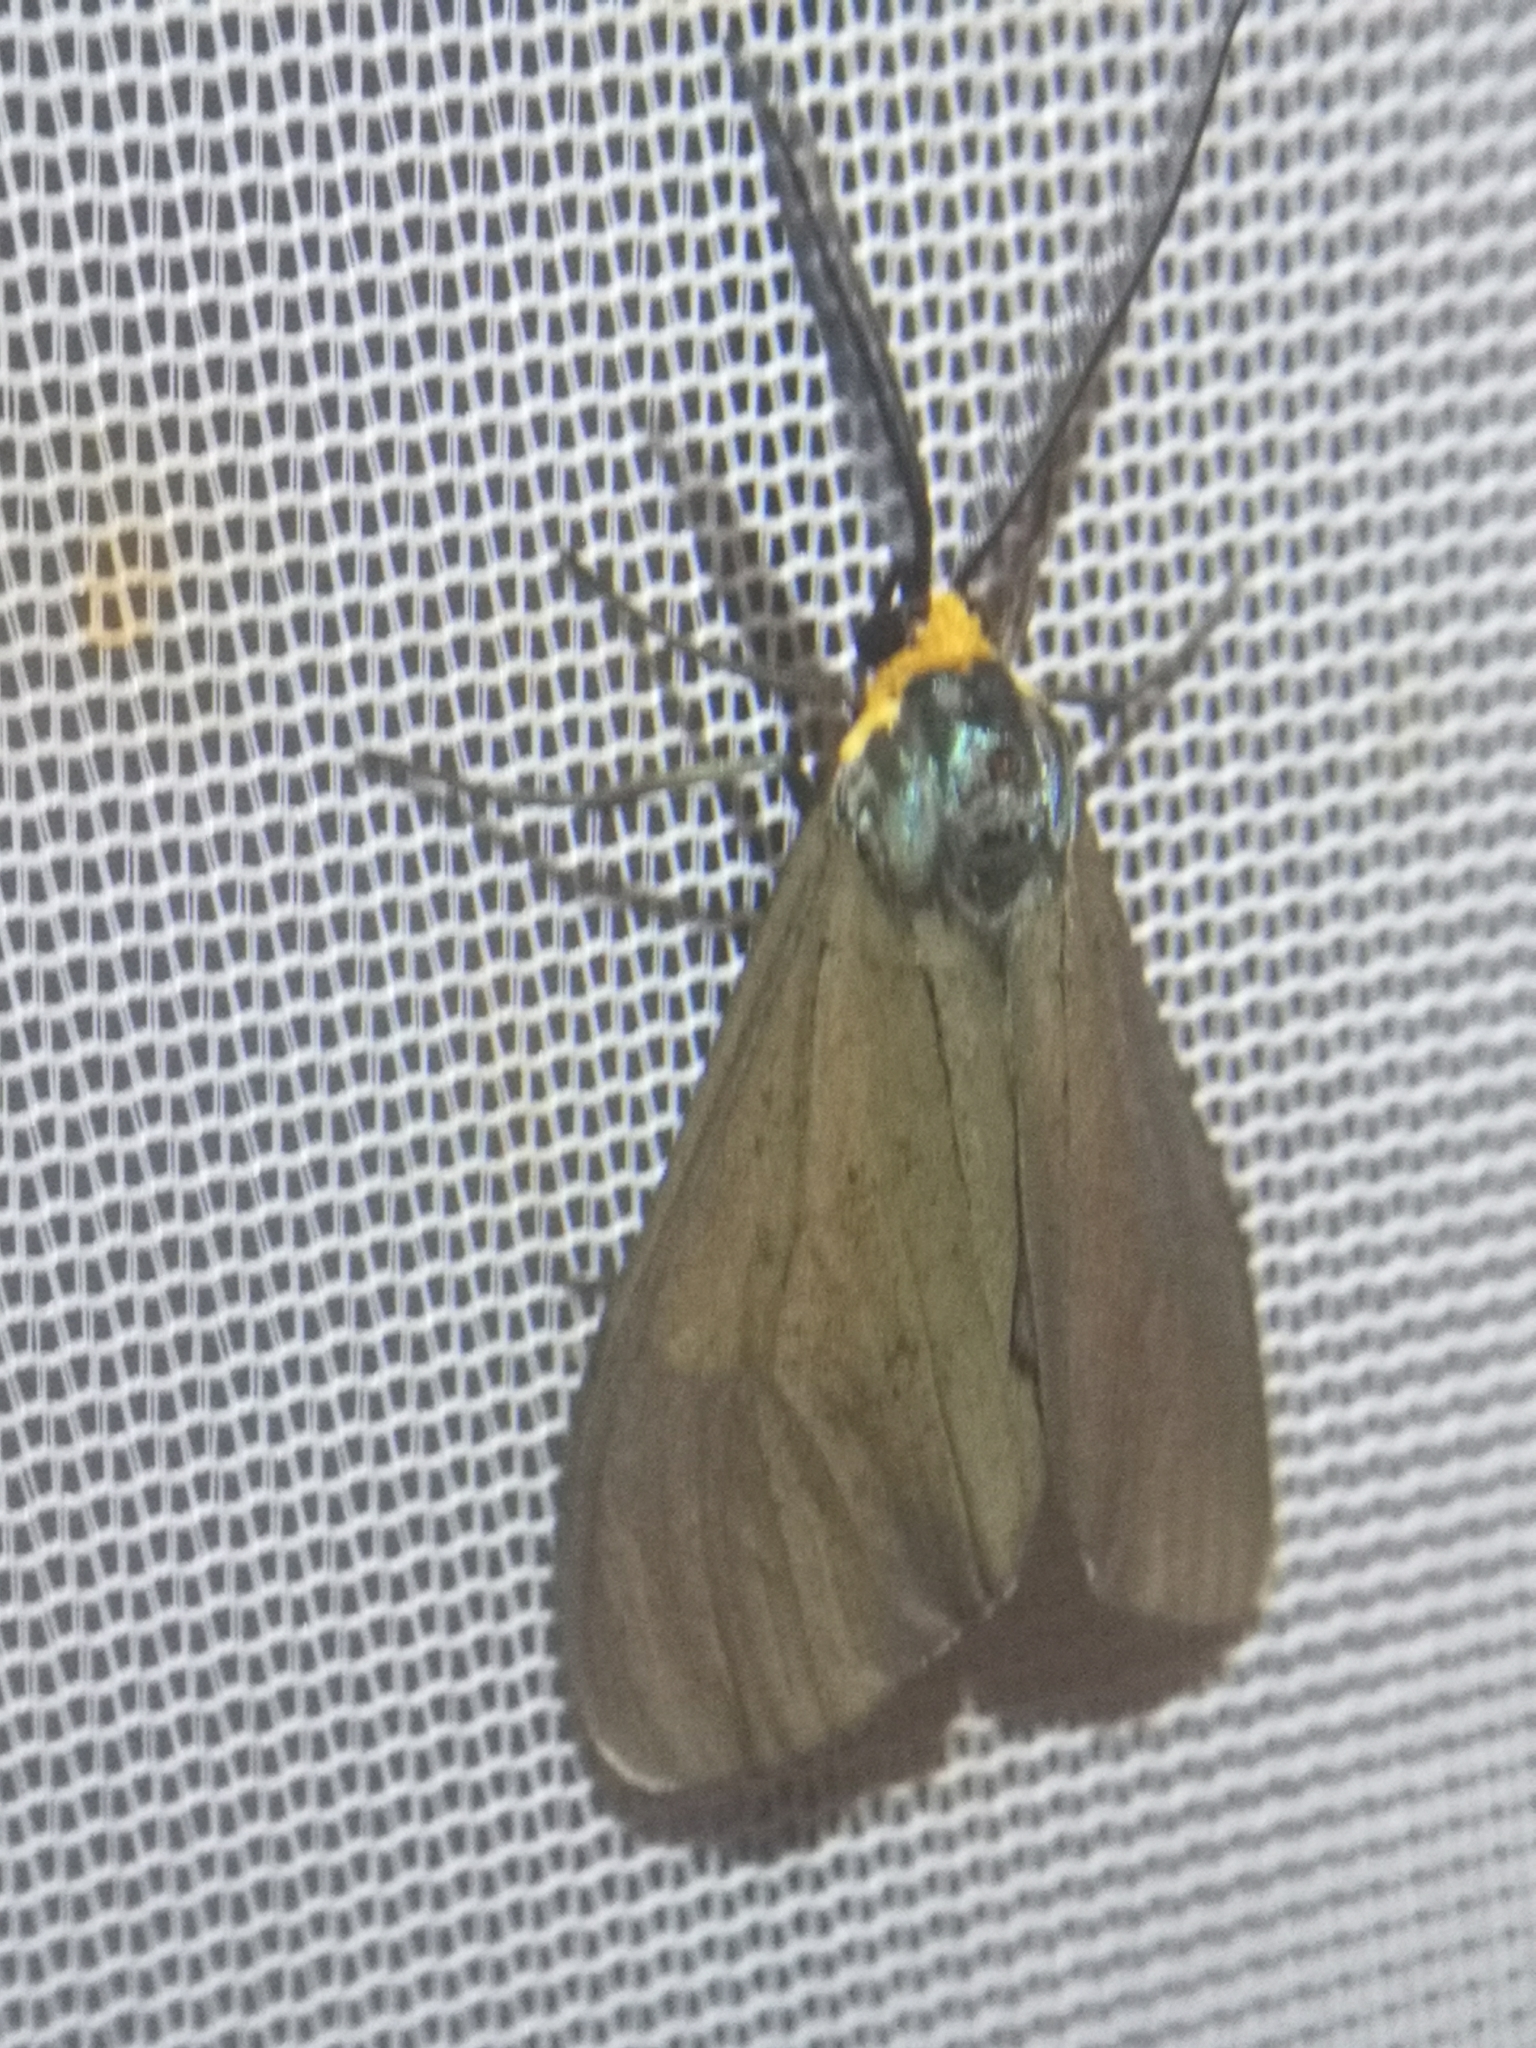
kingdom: Animalia
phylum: Arthropoda
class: Insecta
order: Lepidoptera
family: Erebidae
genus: Ctenucha
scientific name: Ctenucha virginica
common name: Virginia ctenucha moth
